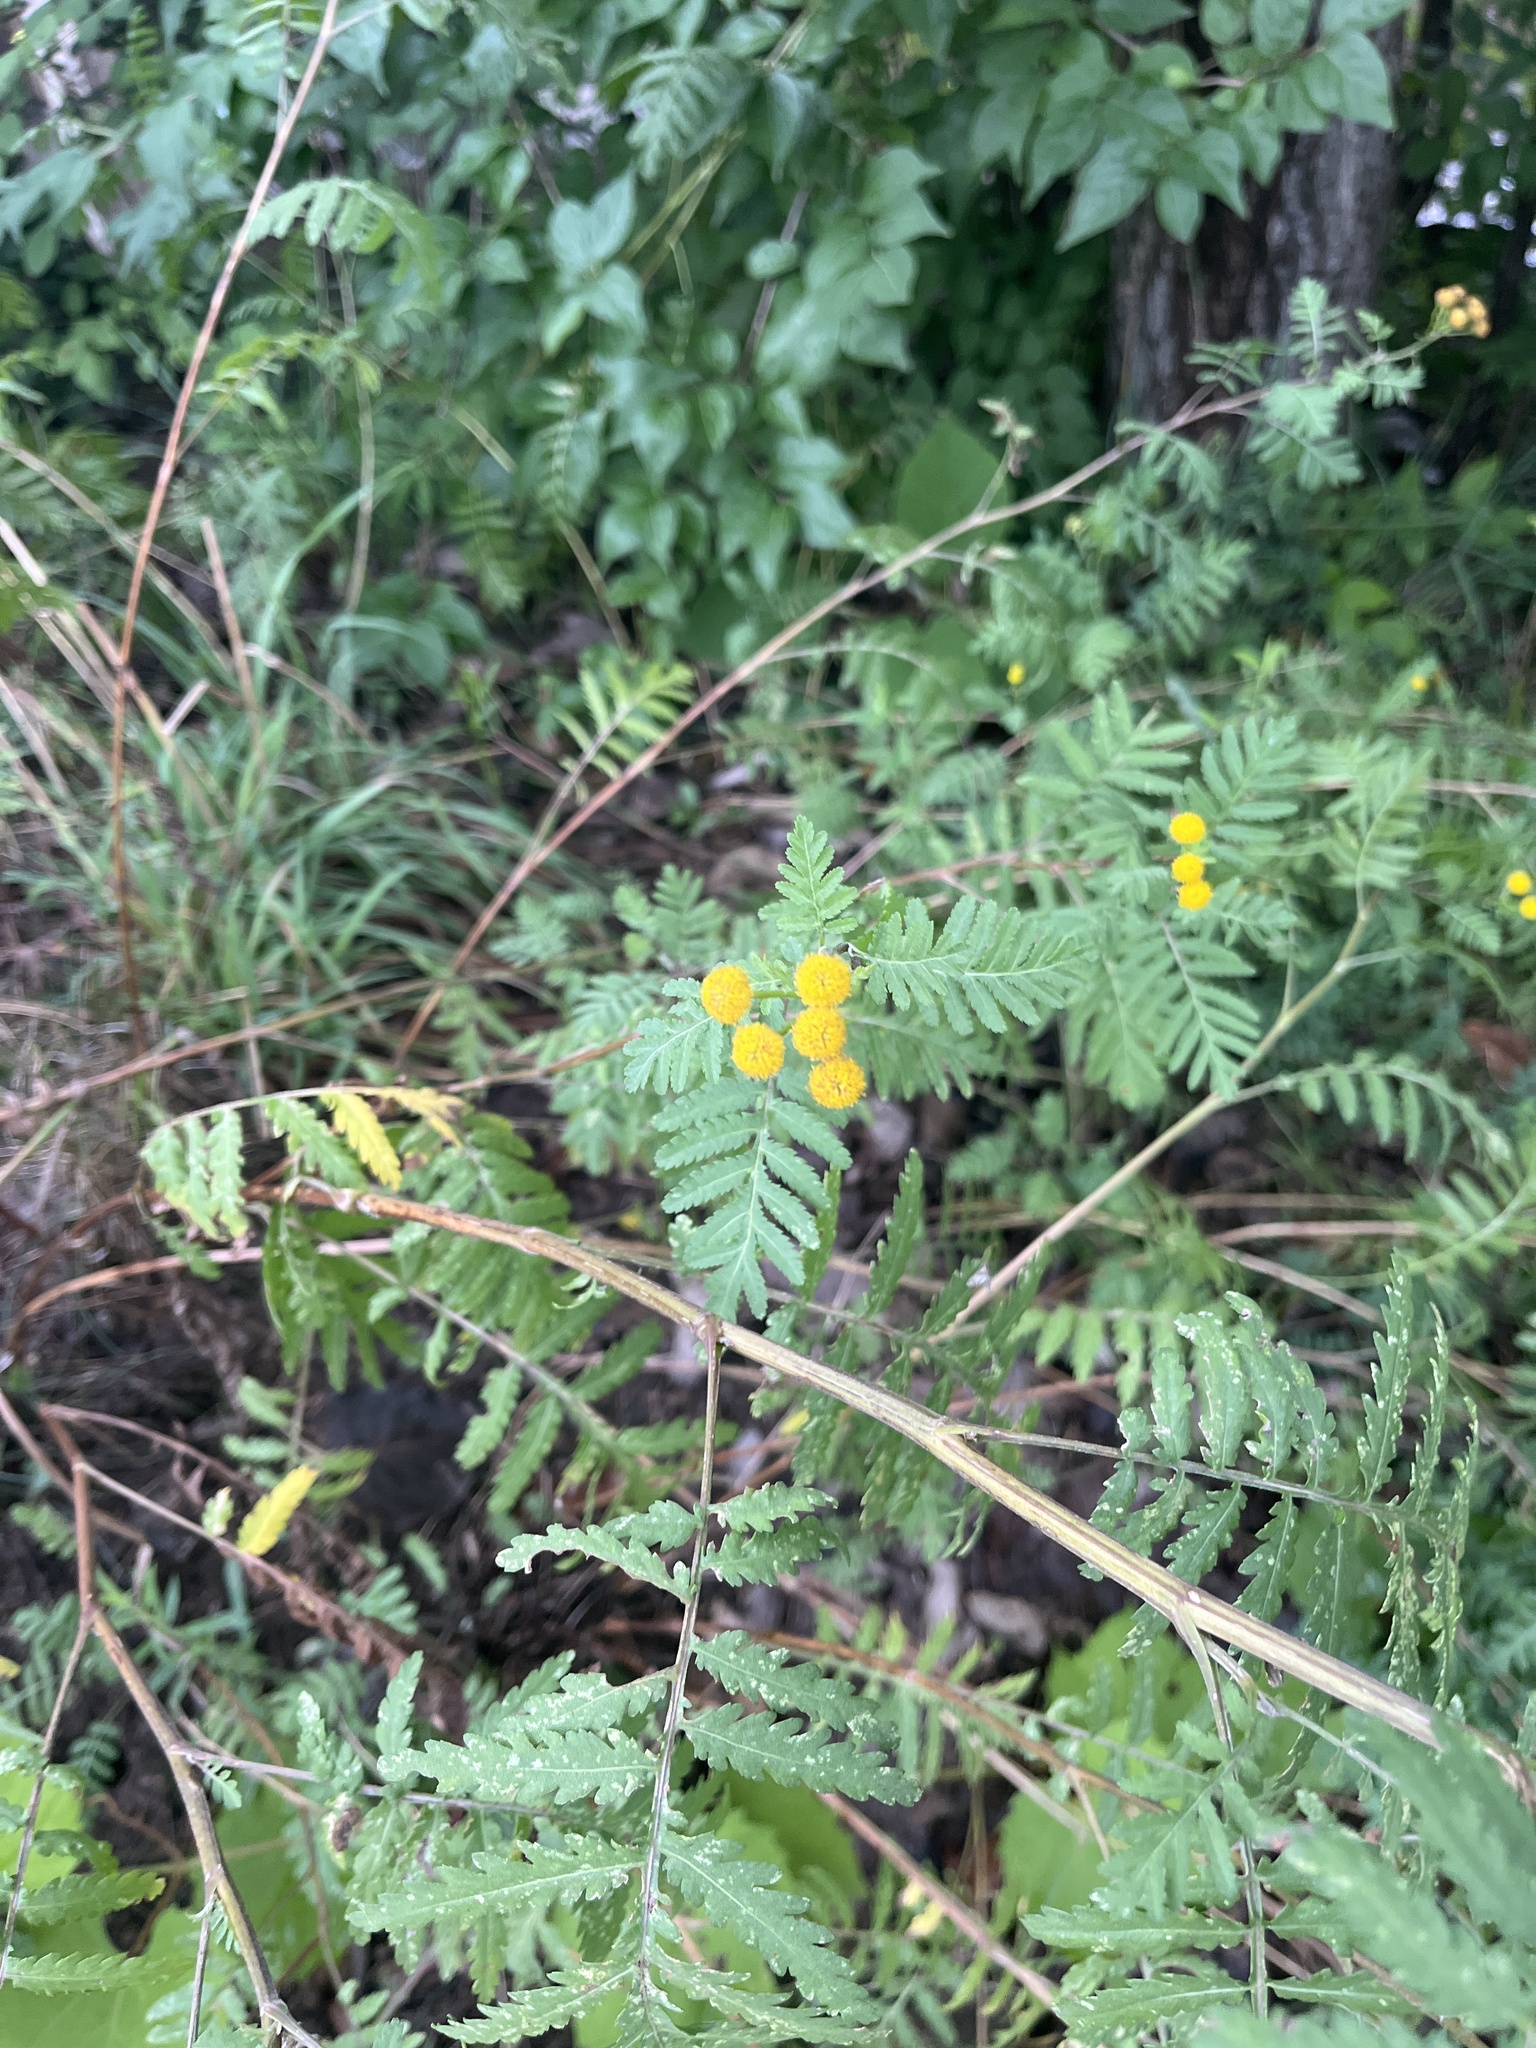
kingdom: Plantae
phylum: Tracheophyta
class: Magnoliopsida
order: Asterales
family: Asteraceae
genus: Tanacetum
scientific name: Tanacetum vulgare
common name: Common tansy
